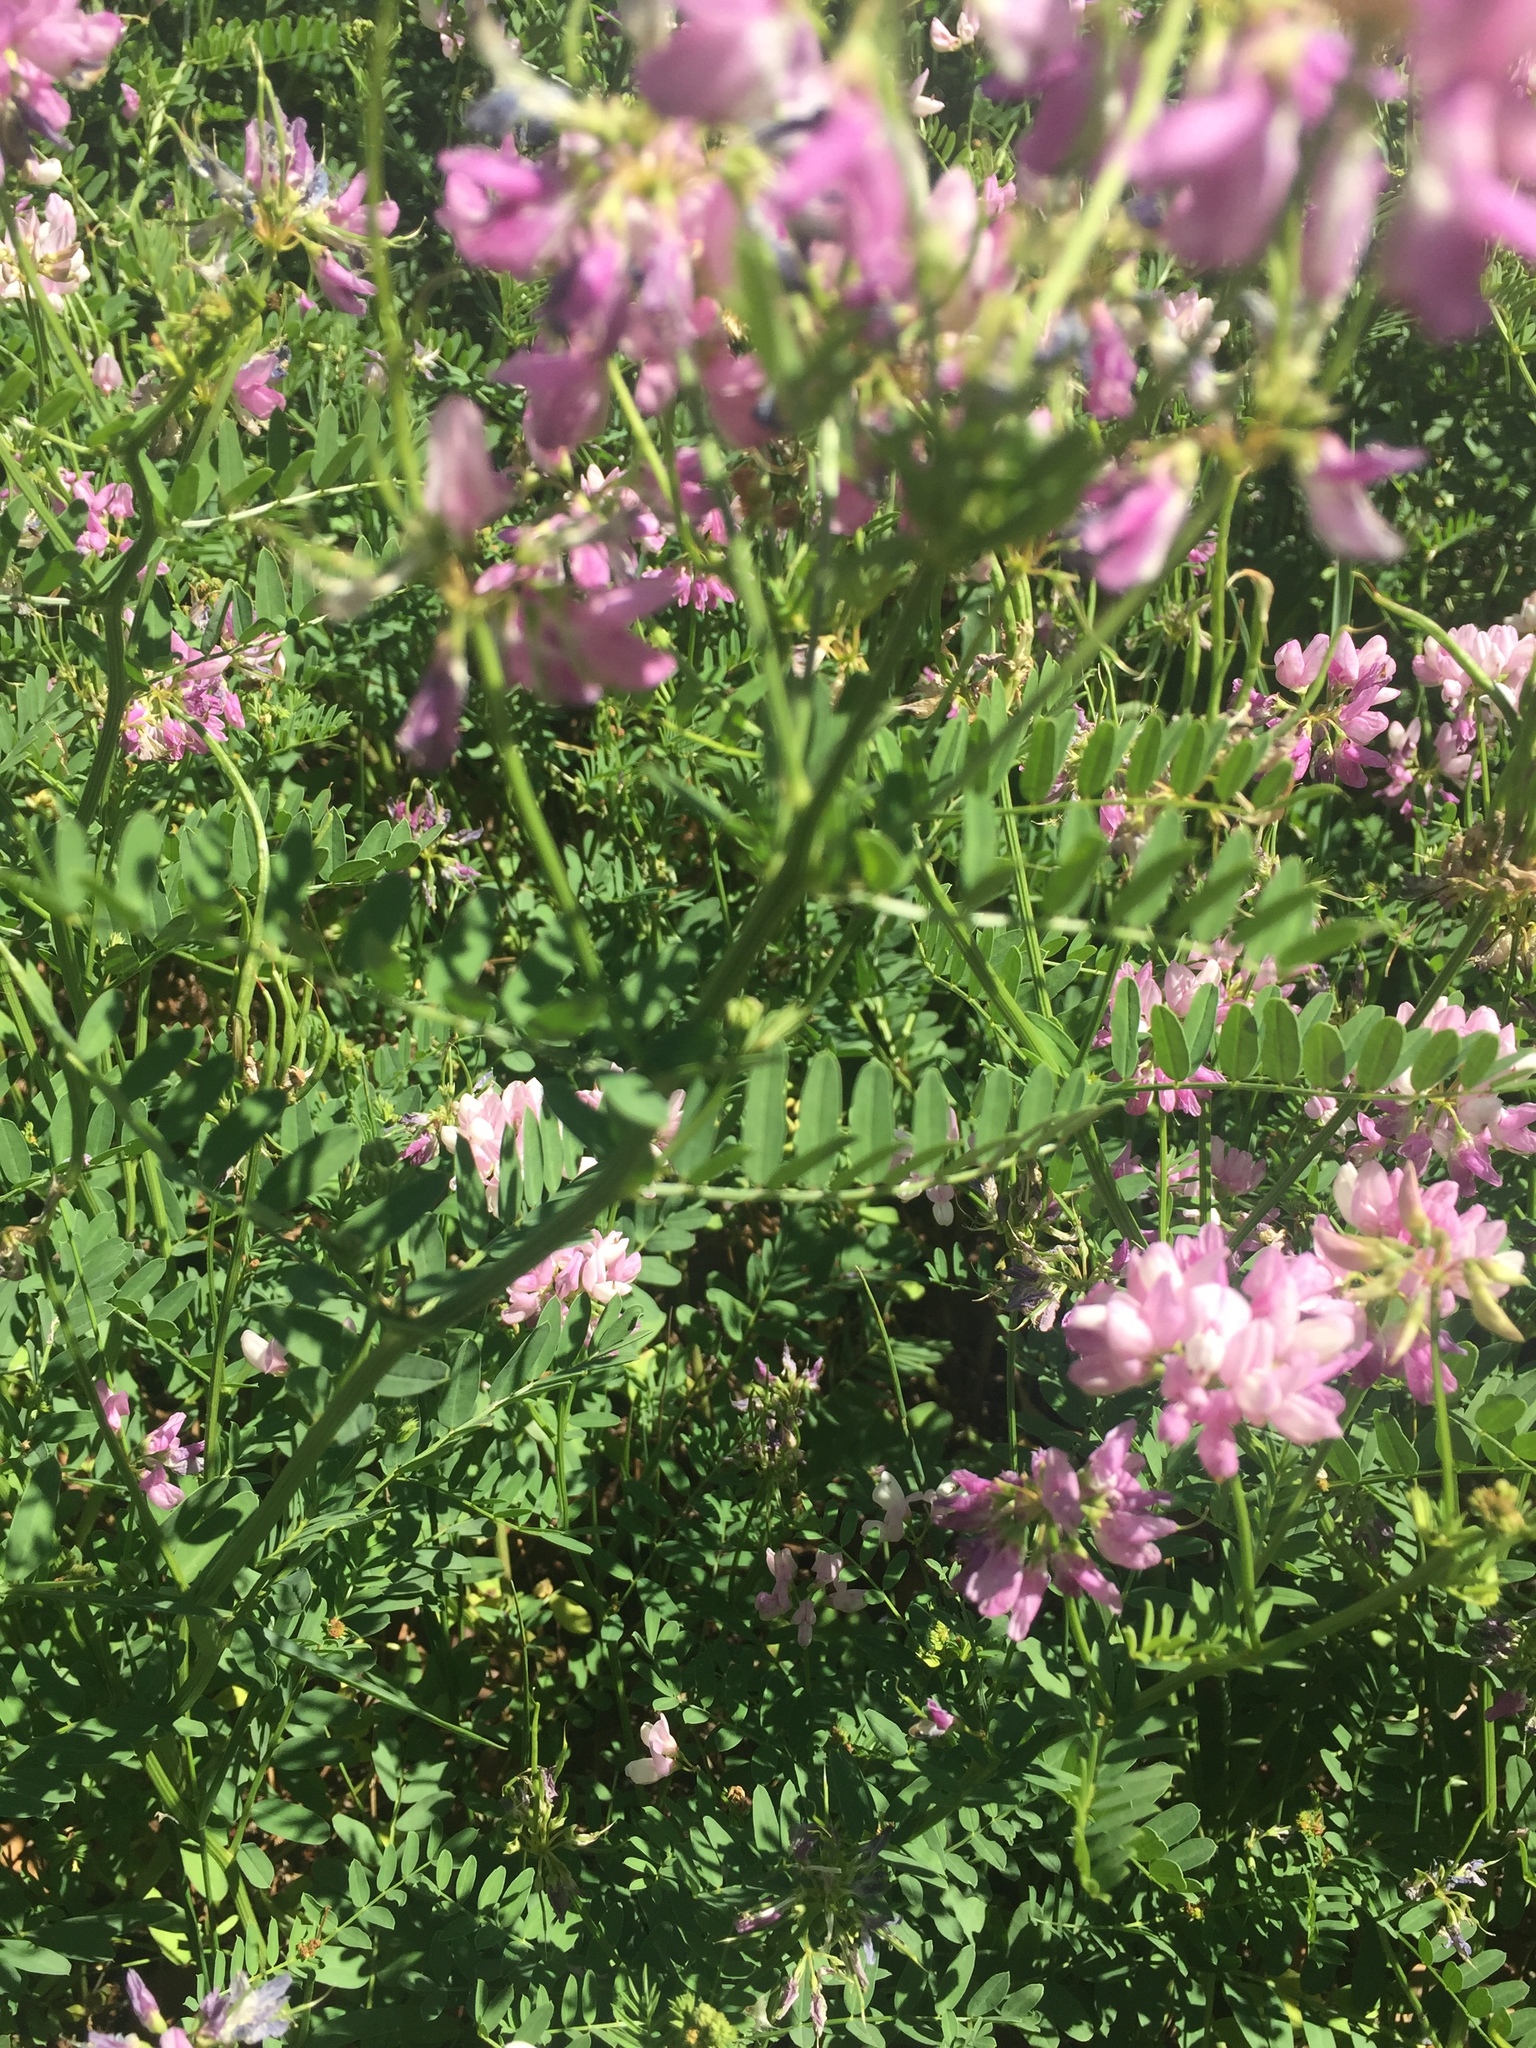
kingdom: Plantae
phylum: Tracheophyta
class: Magnoliopsida
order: Fabales
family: Fabaceae
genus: Coronilla
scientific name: Coronilla varia
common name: Crownvetch
